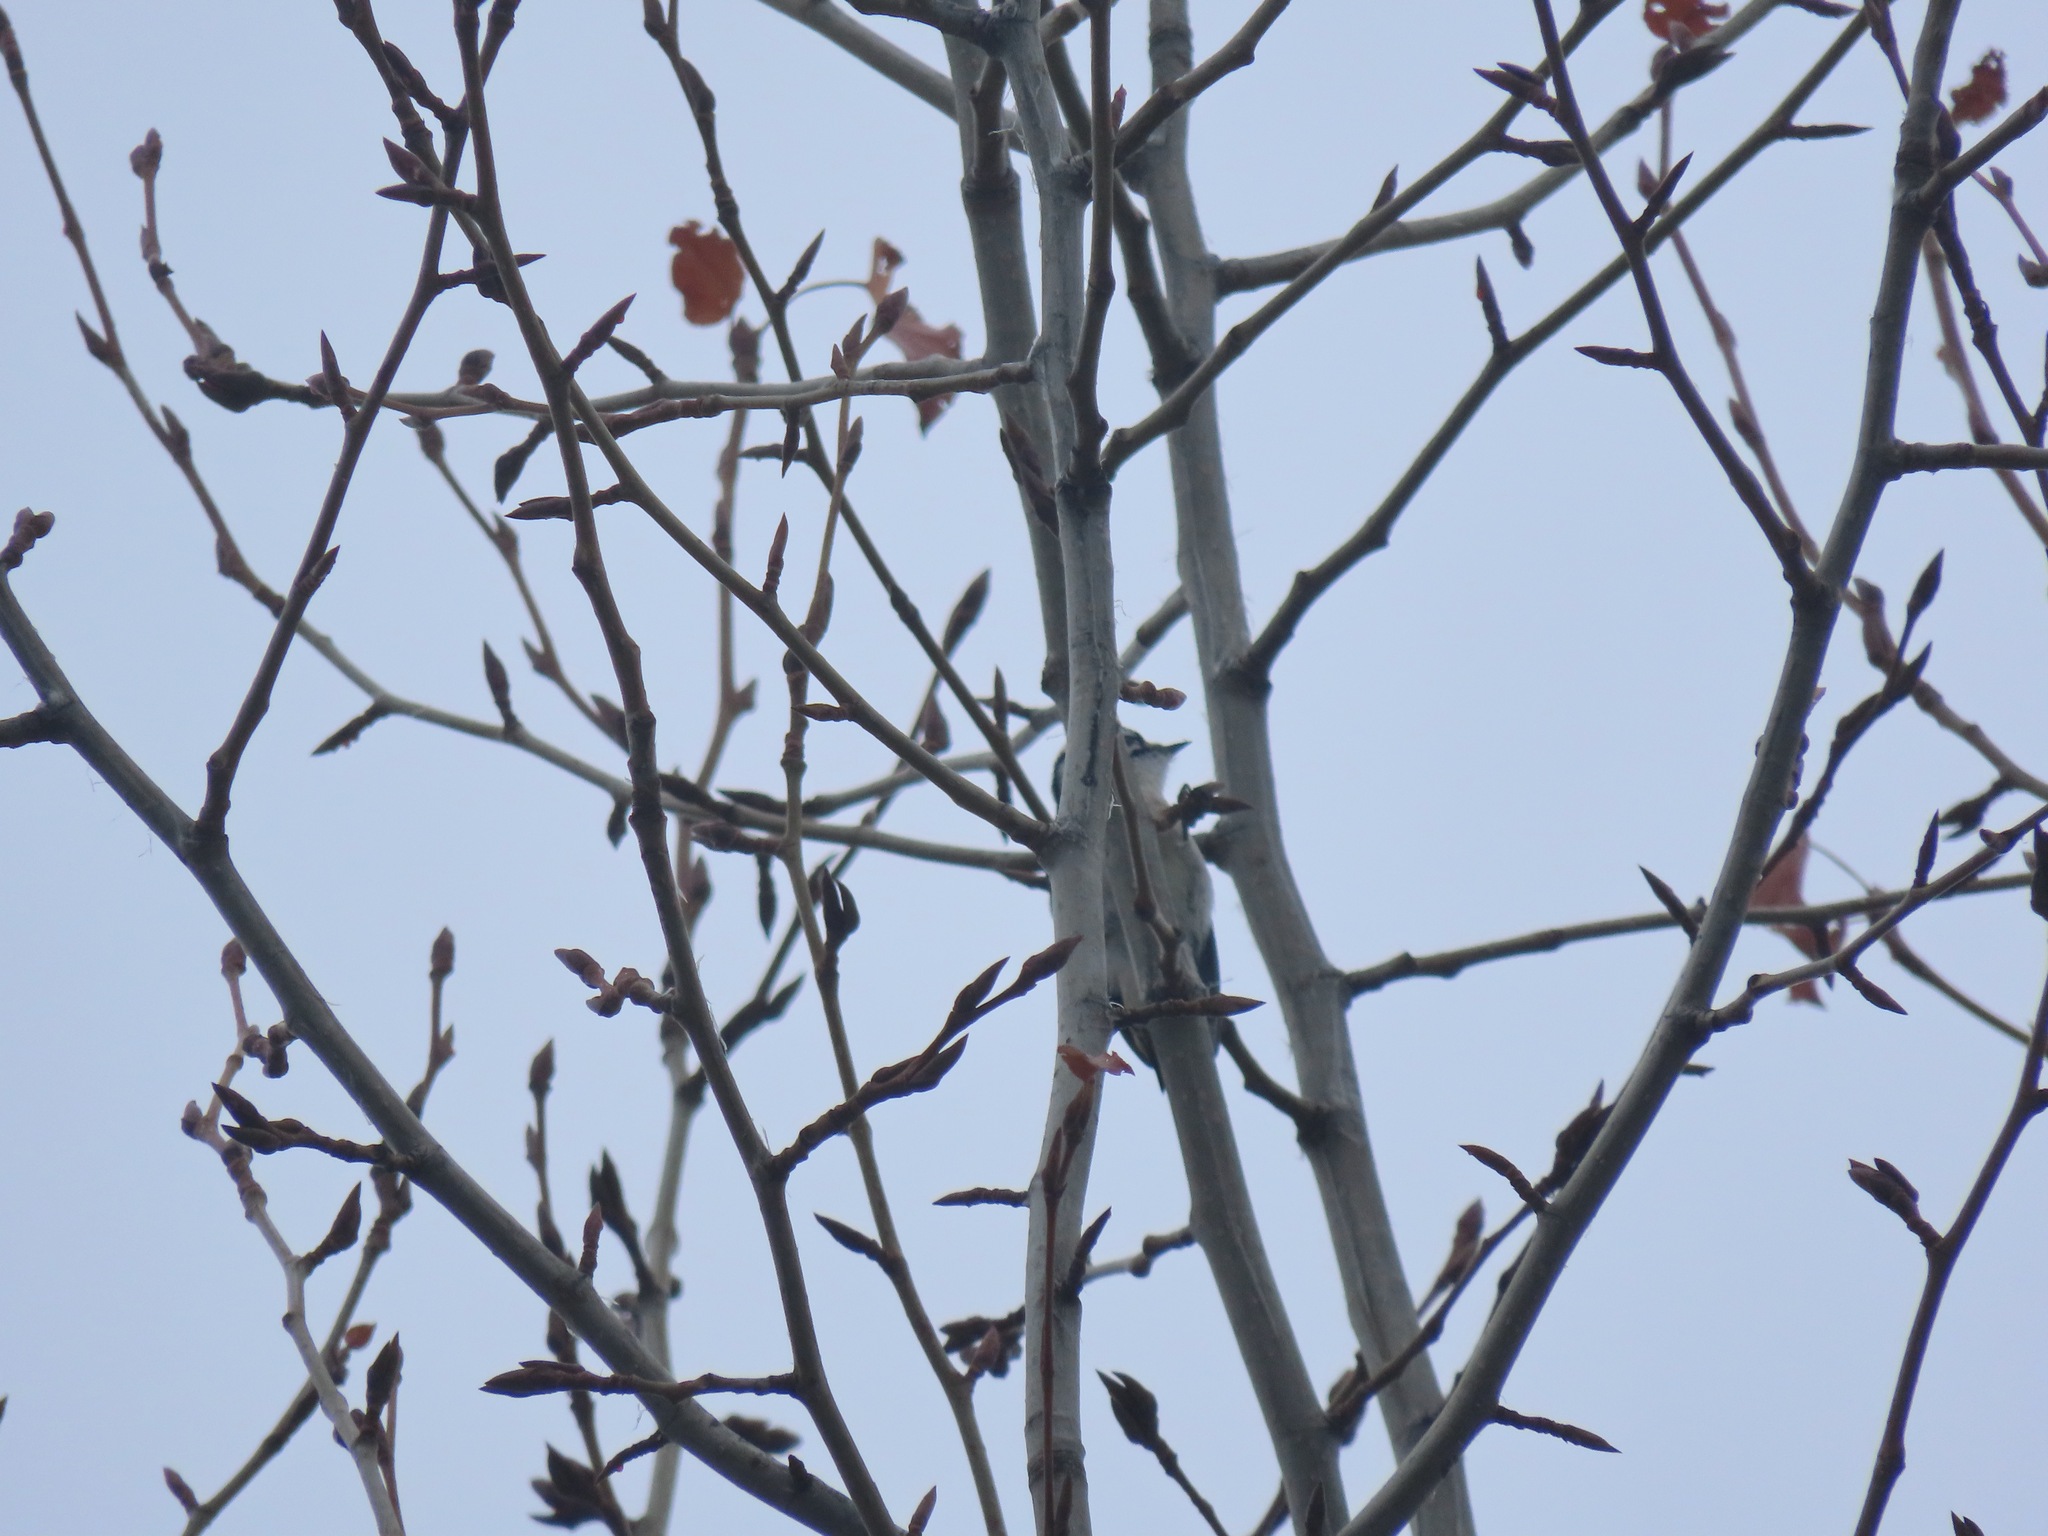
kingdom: Animalia
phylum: Chordata
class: Aves
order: Piciformes
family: Picidae
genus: Dryobates
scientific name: Dryobates pubescens
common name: Downy woodpecker
